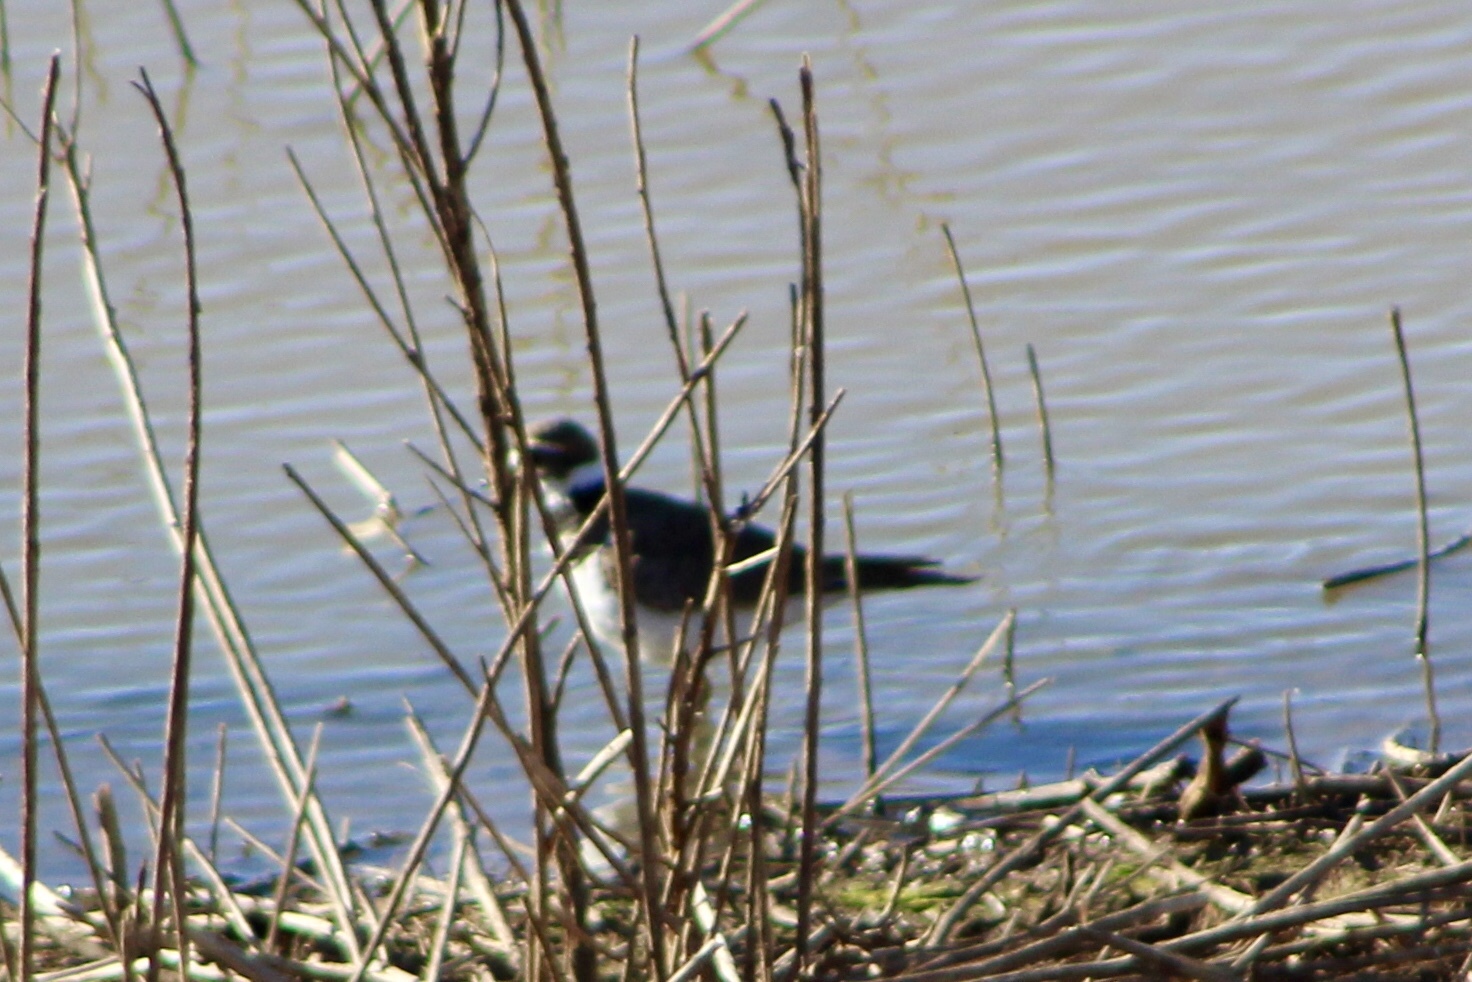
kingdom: Animalia
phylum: Chordata
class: Aves
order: Charadriiformes
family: Charadriidae
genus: Charadrius
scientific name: Charadrius vociferus
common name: Killdeer
